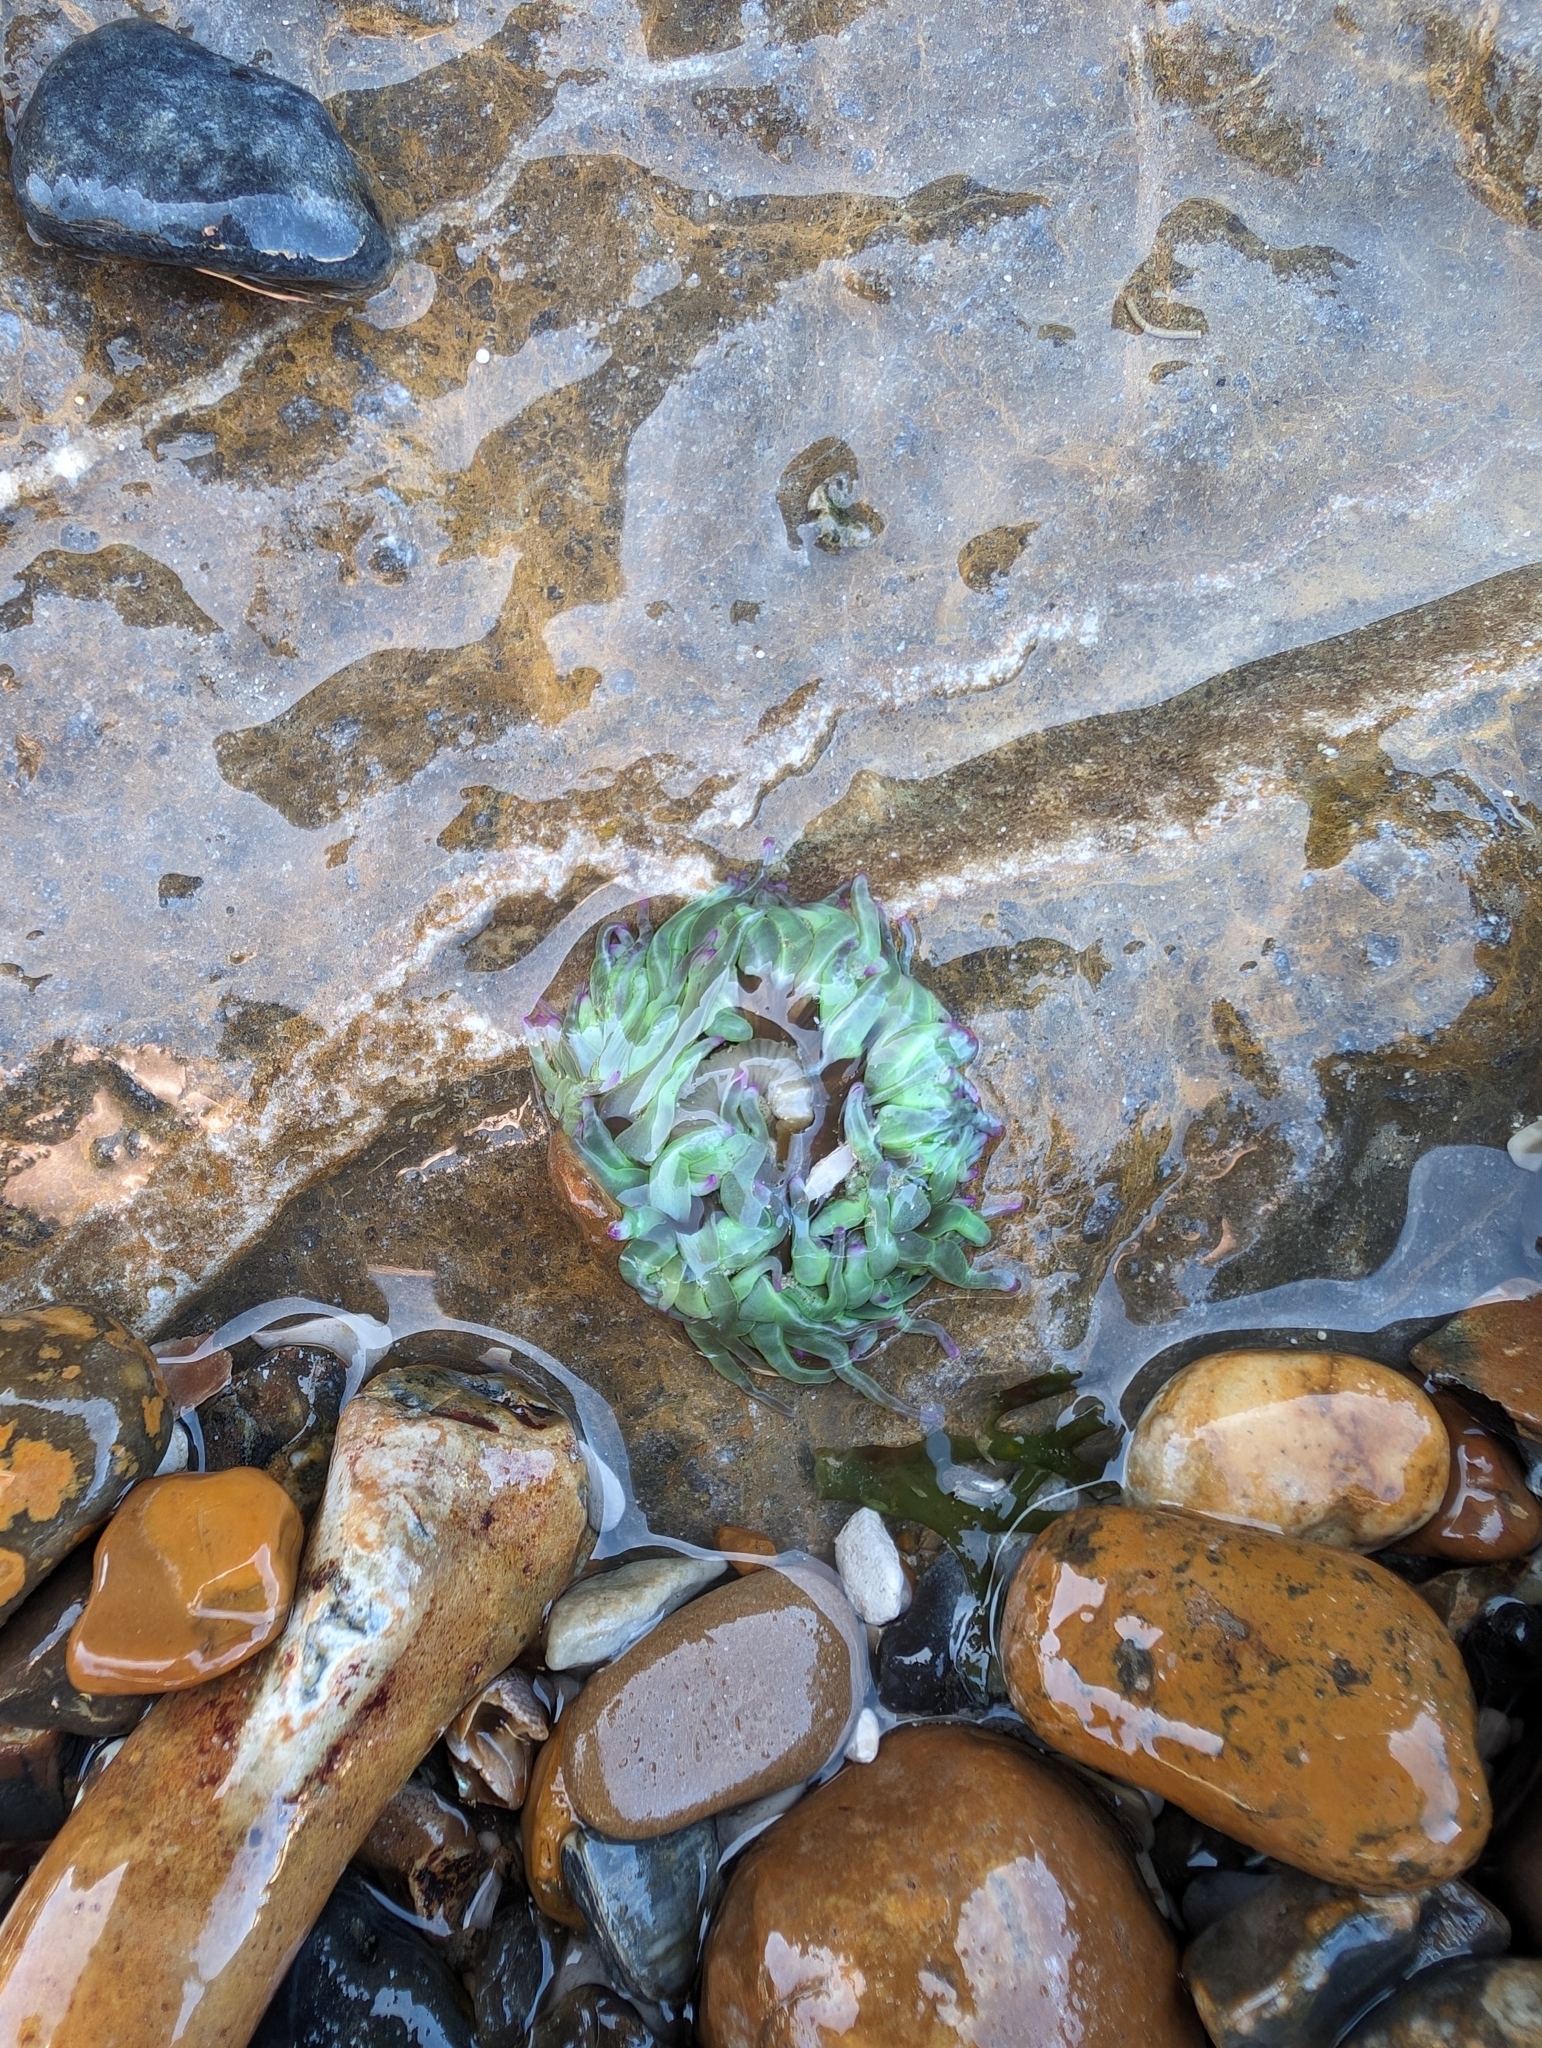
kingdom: Animalia
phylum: Cnidaria
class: Anthozoa
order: Actiniaria
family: Actiniidae
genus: Anemonia
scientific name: Anemonia viridis
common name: Snakelocks anemone
